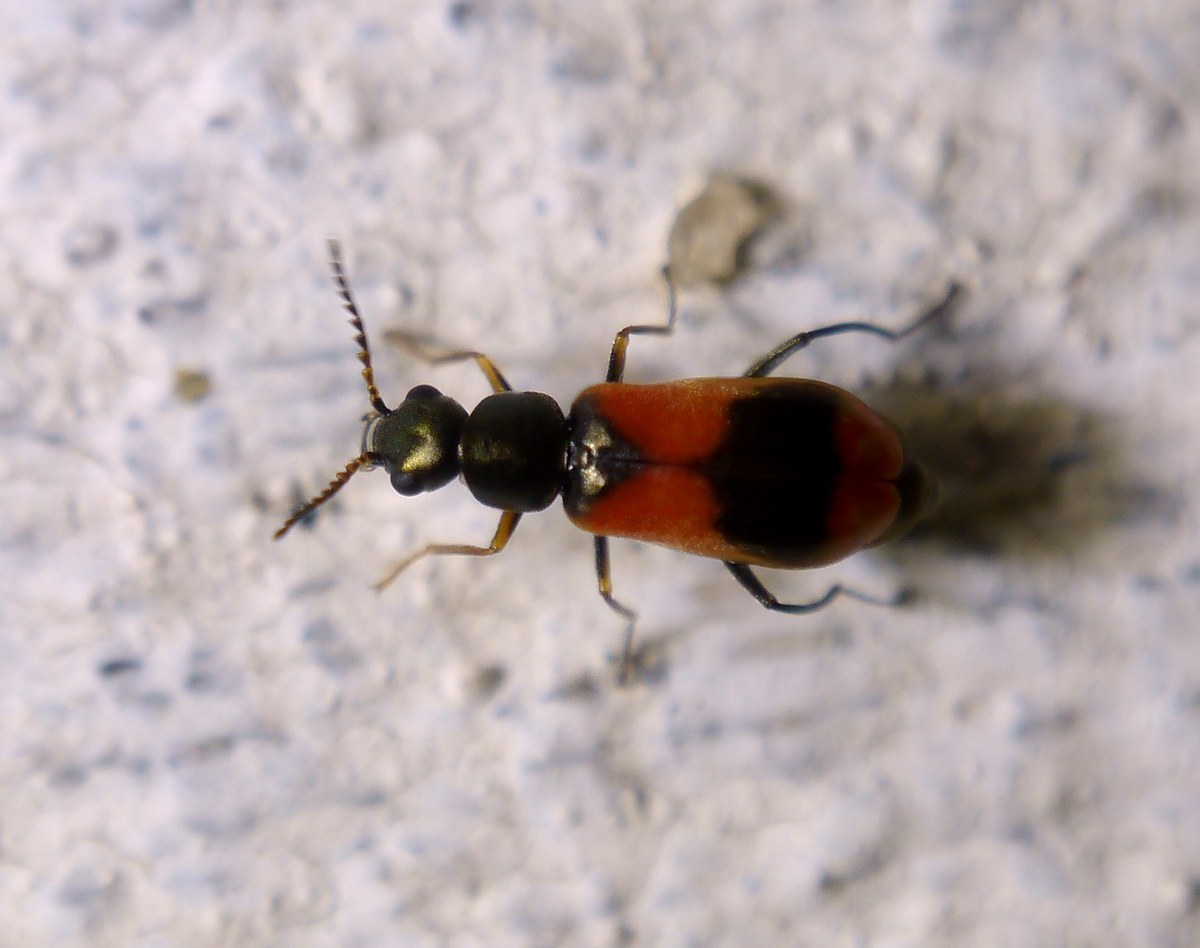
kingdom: Animalia
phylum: Arthropoda
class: Insecta
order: Coleoptera
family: Melyridae
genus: Anthocomus
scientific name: Anthocomus equestris
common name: Black-banded soft-winged flower beetle
